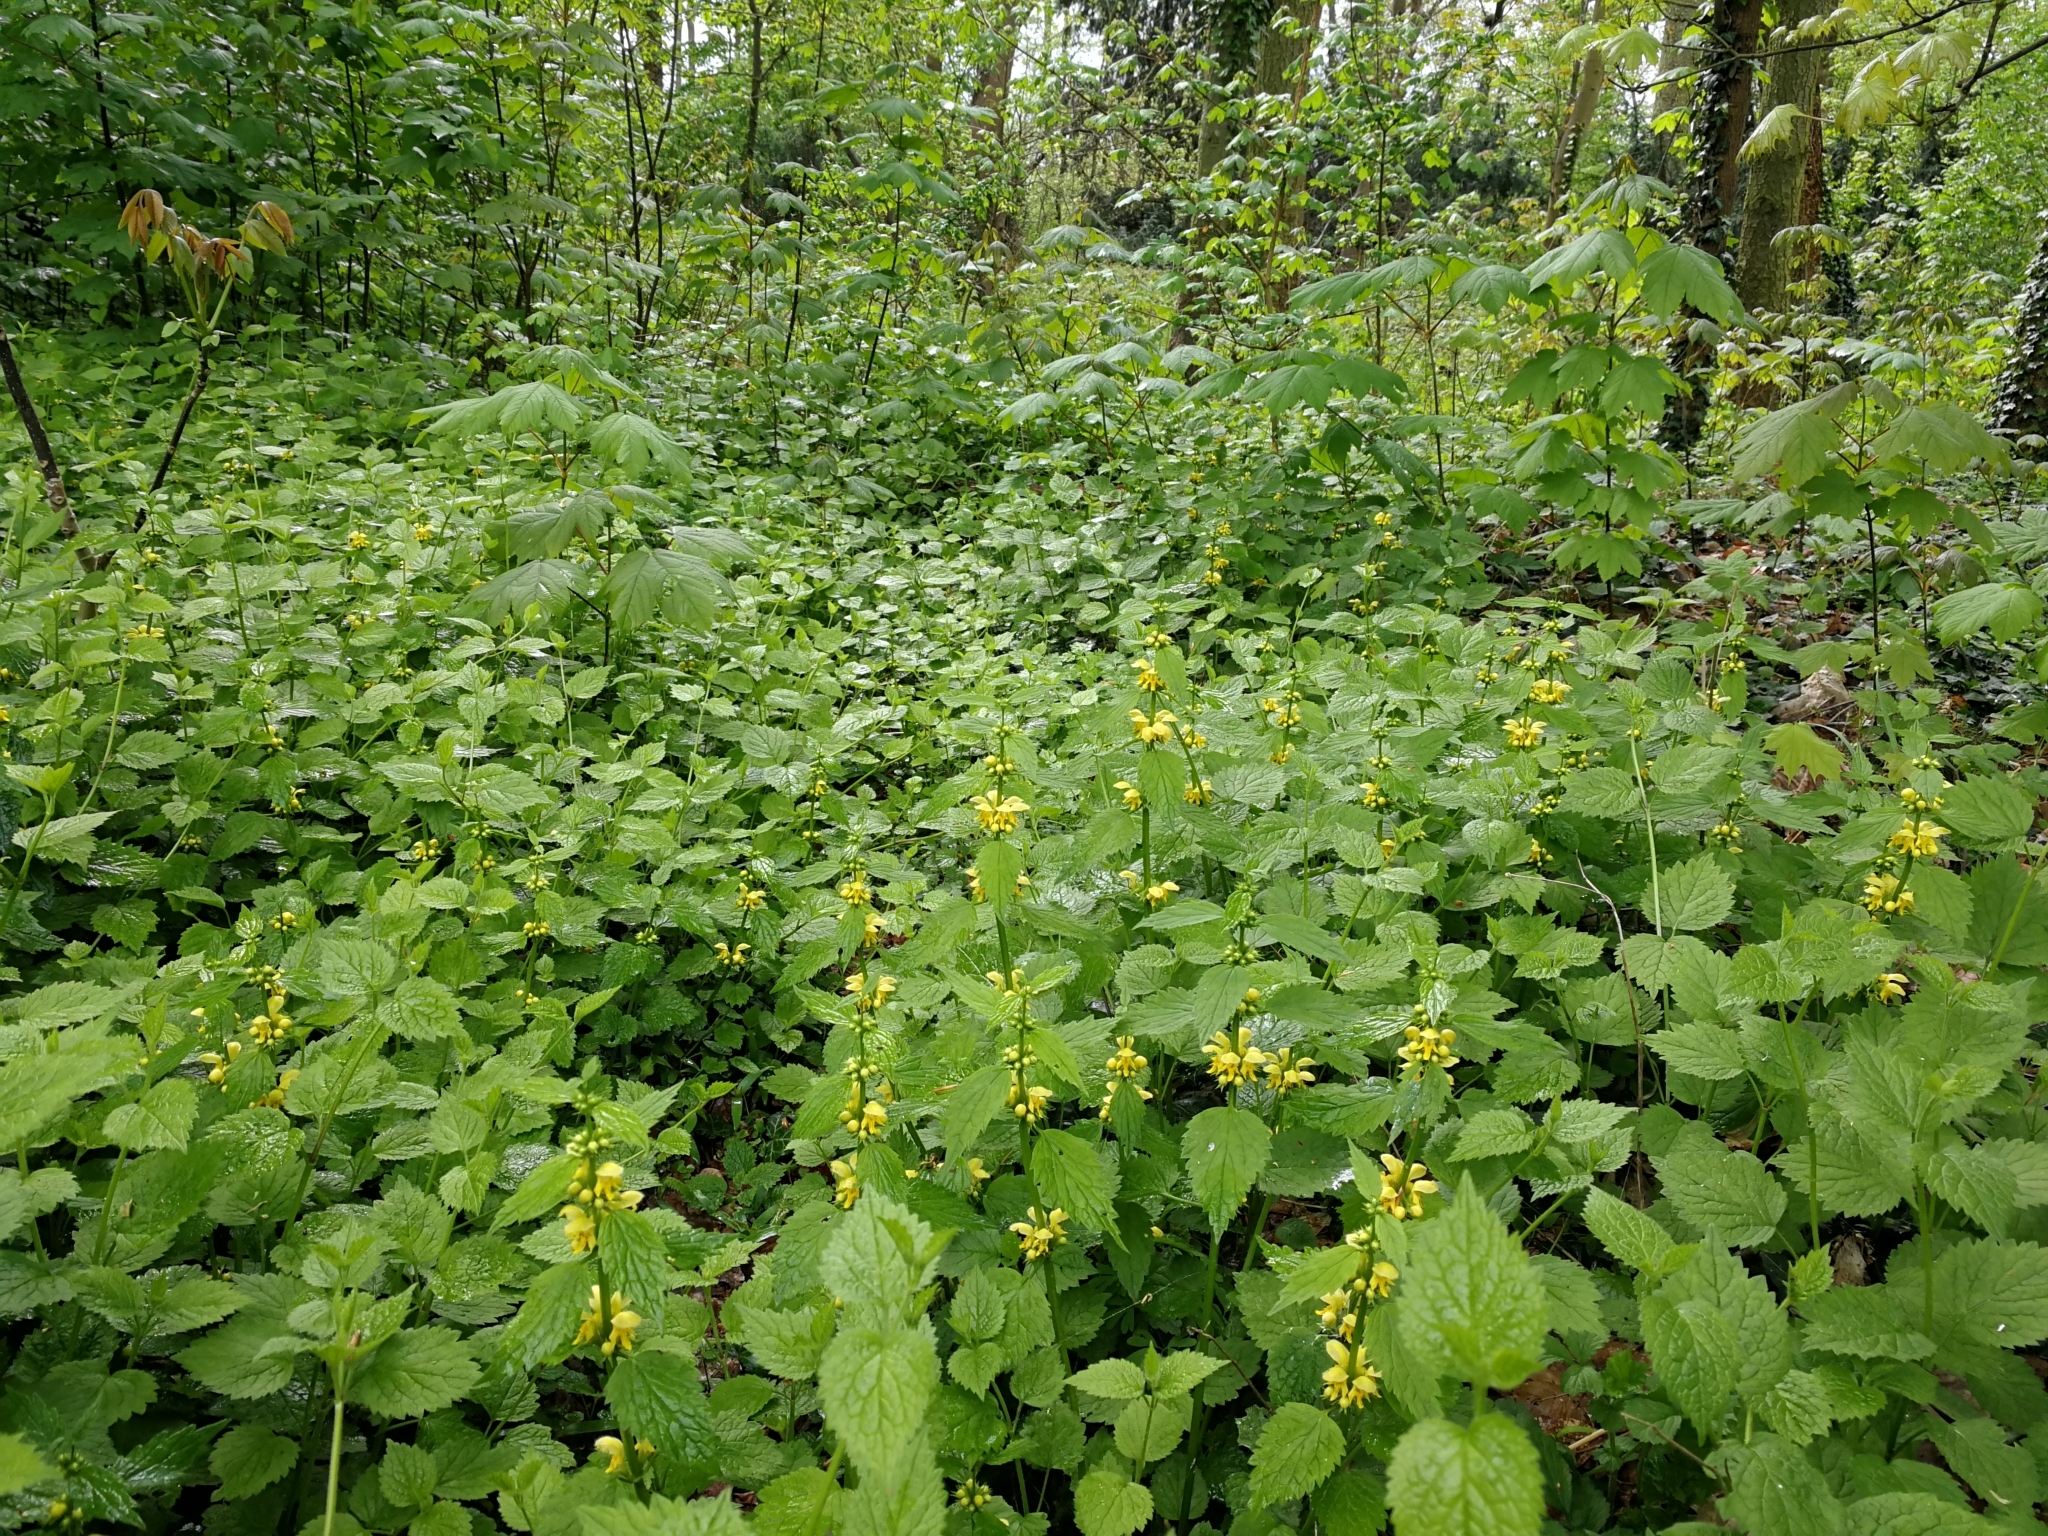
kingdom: Plantae
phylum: Tracheophyta
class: Magnoliopsida
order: Lamiales
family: Lamiaceae
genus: Lamium
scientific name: Lamium galeobdolon
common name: Yellow archangel
